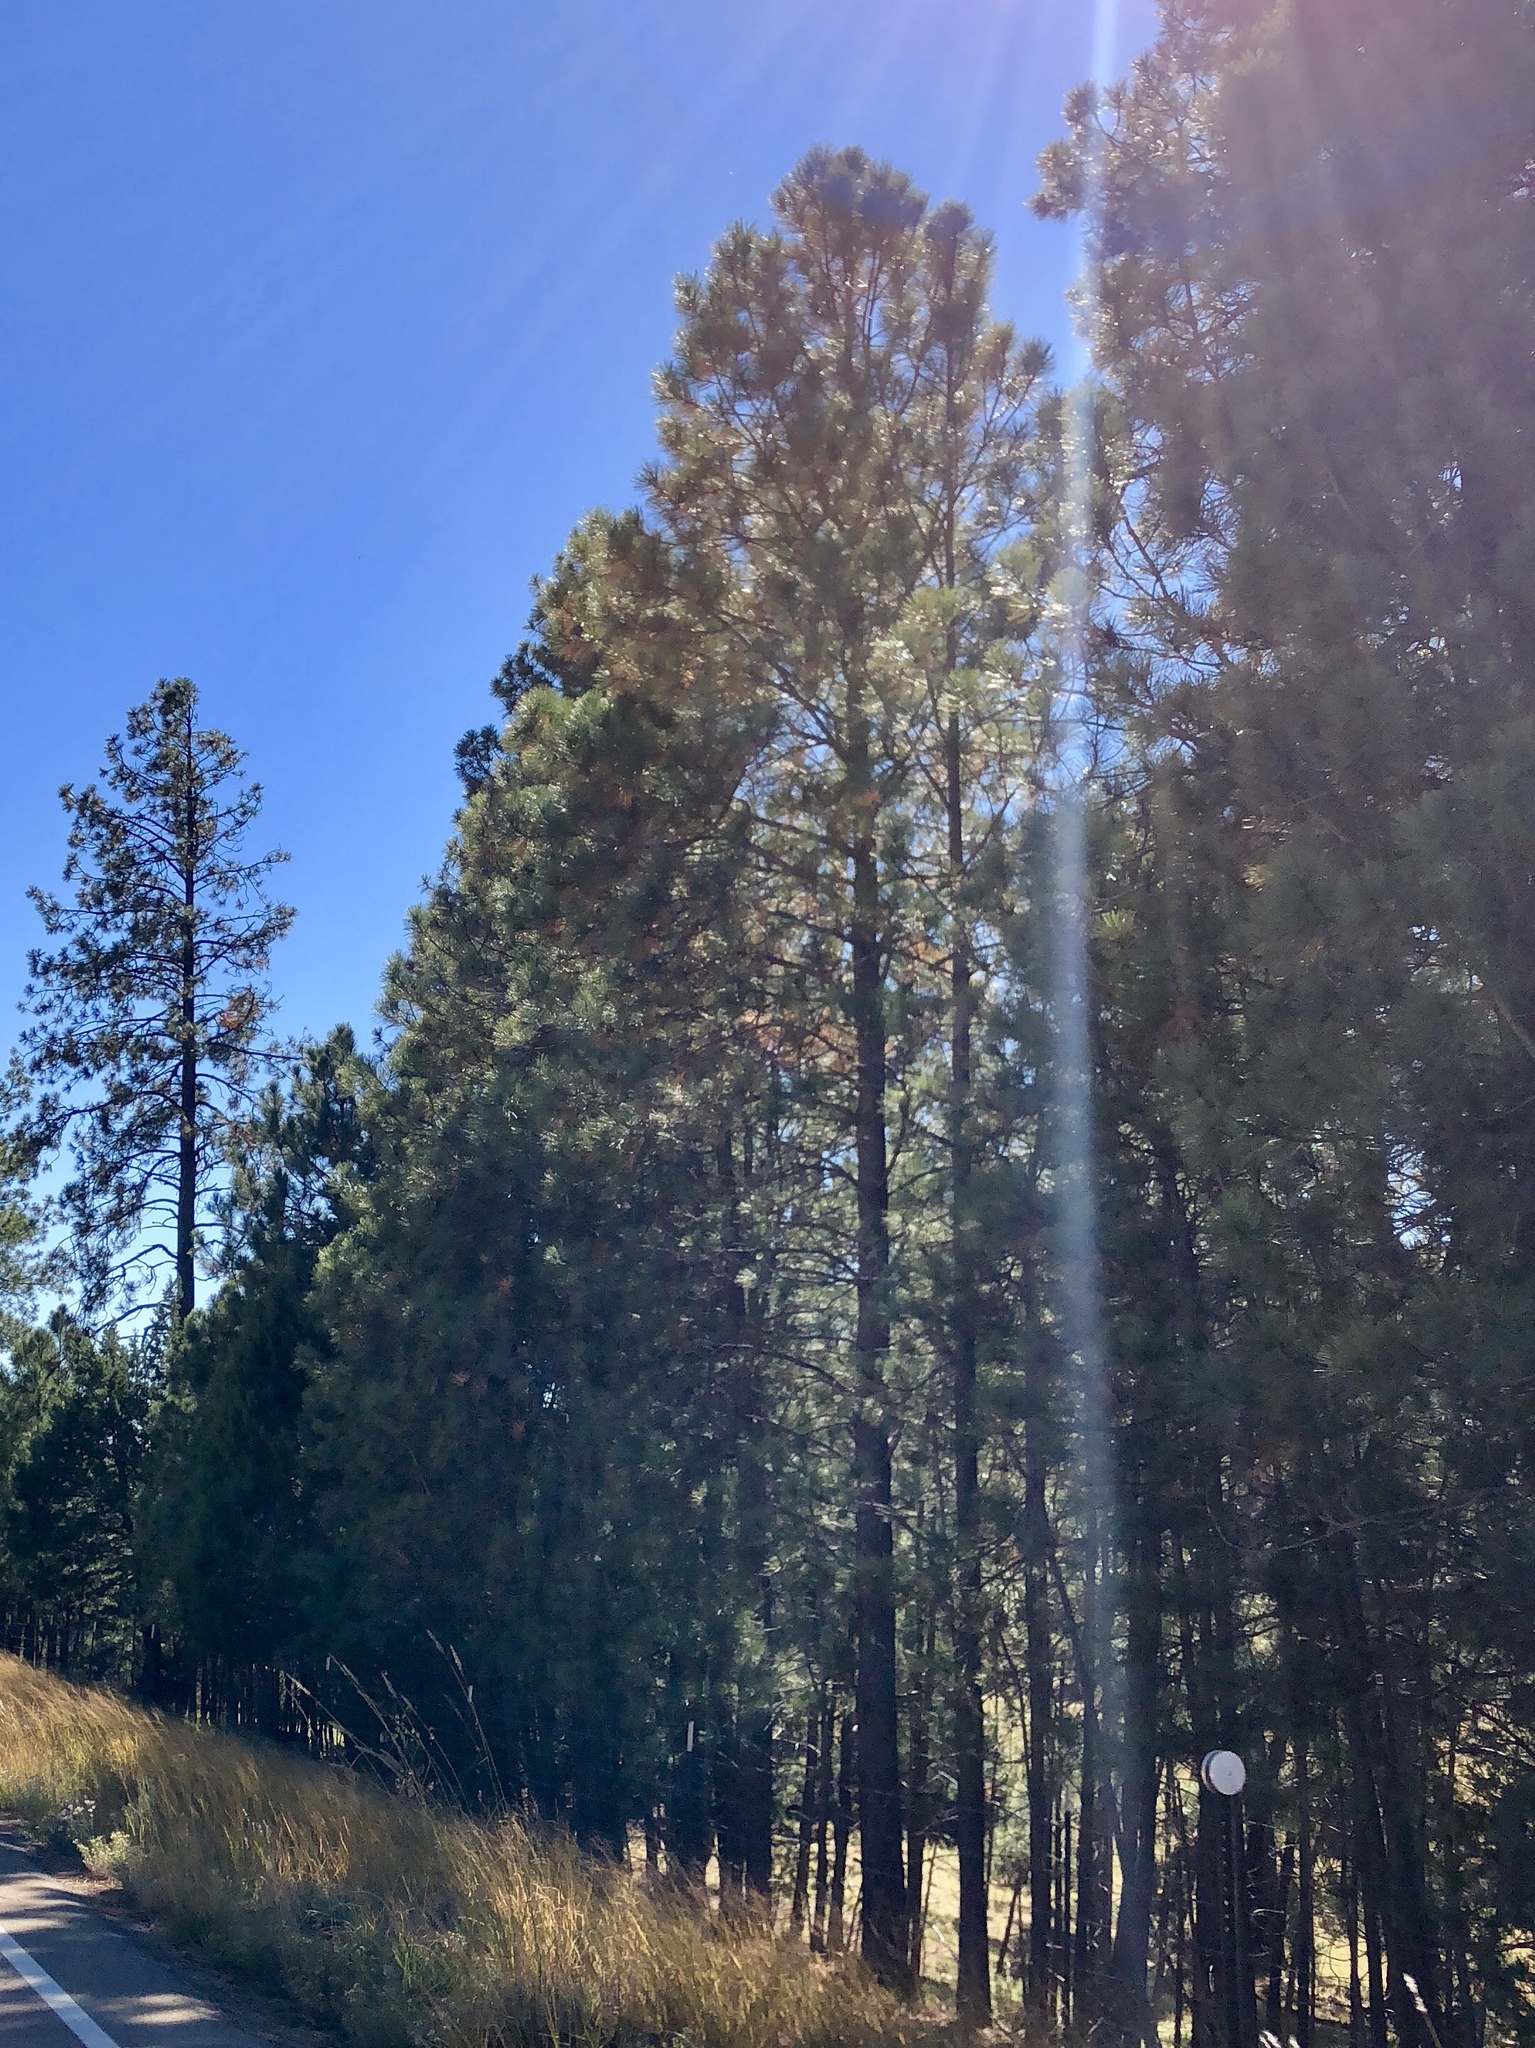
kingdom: Plantae
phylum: Tracheophyta
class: Pinopsida
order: Pinales
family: Pinaceae
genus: Pinus
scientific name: Pinus ponderosa
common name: Western yellow-pine
